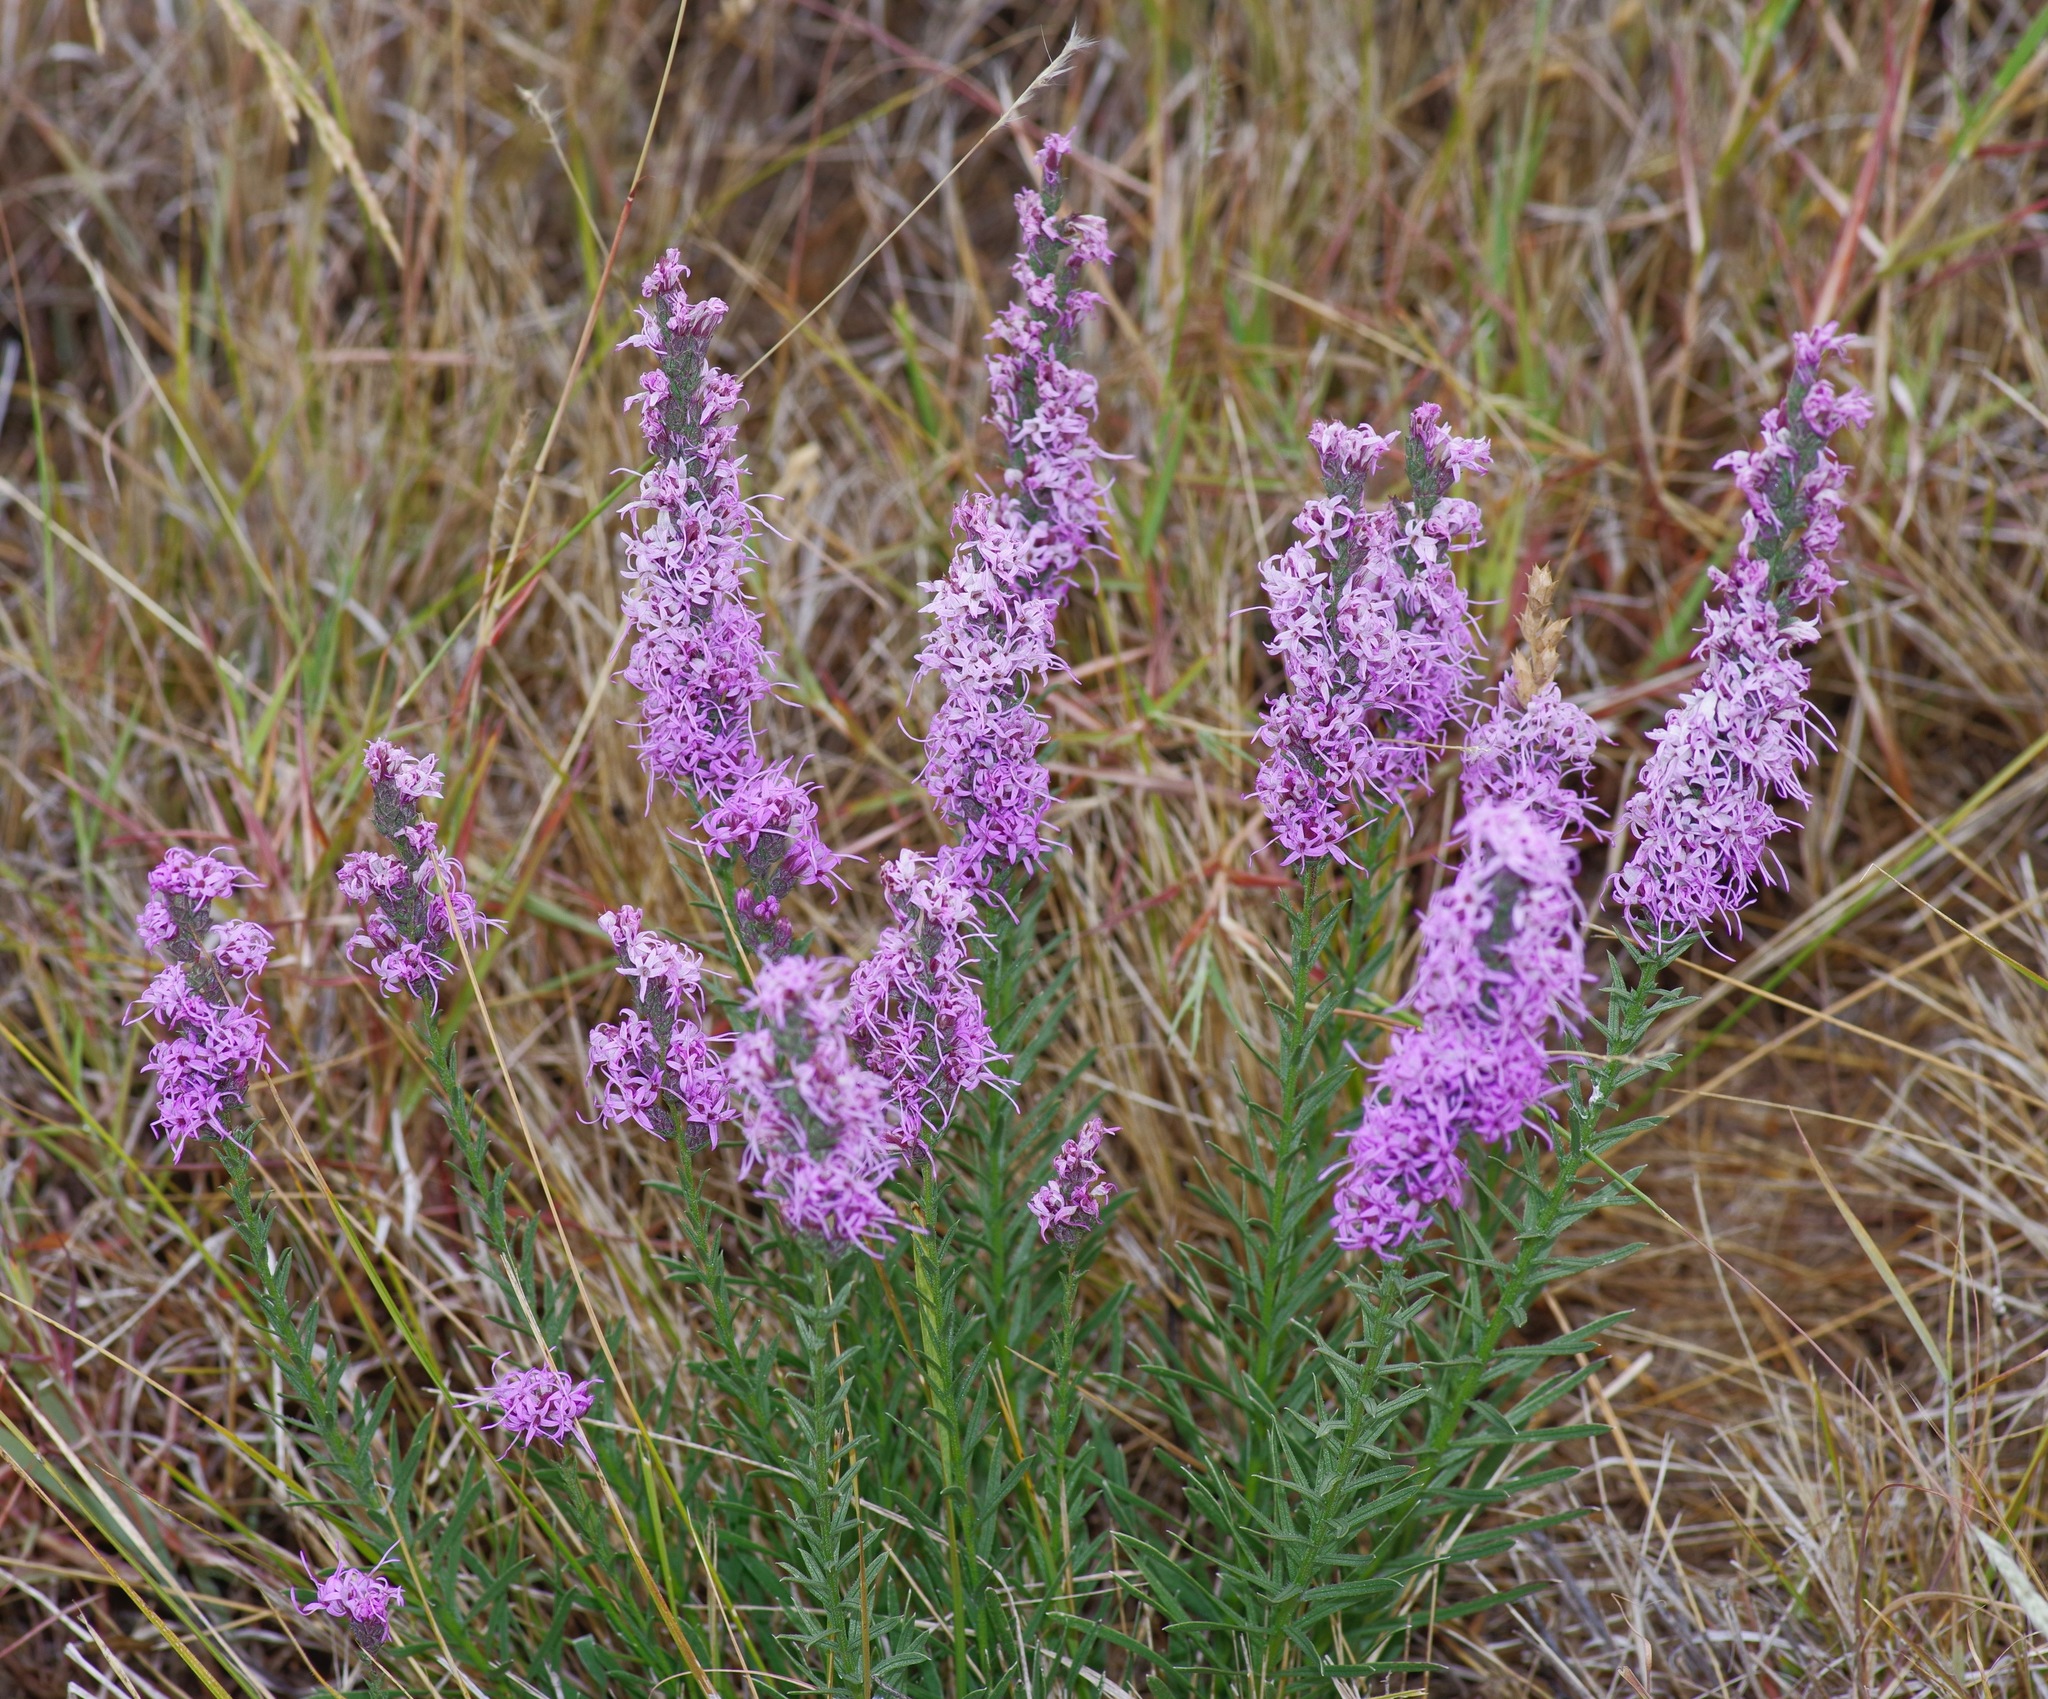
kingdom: Plantae
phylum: Tracheophyta
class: Magnoliopsida
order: Asterales
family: Asteraceae
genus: Liatris
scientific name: Liatris punctata
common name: Dotted gayfeather
